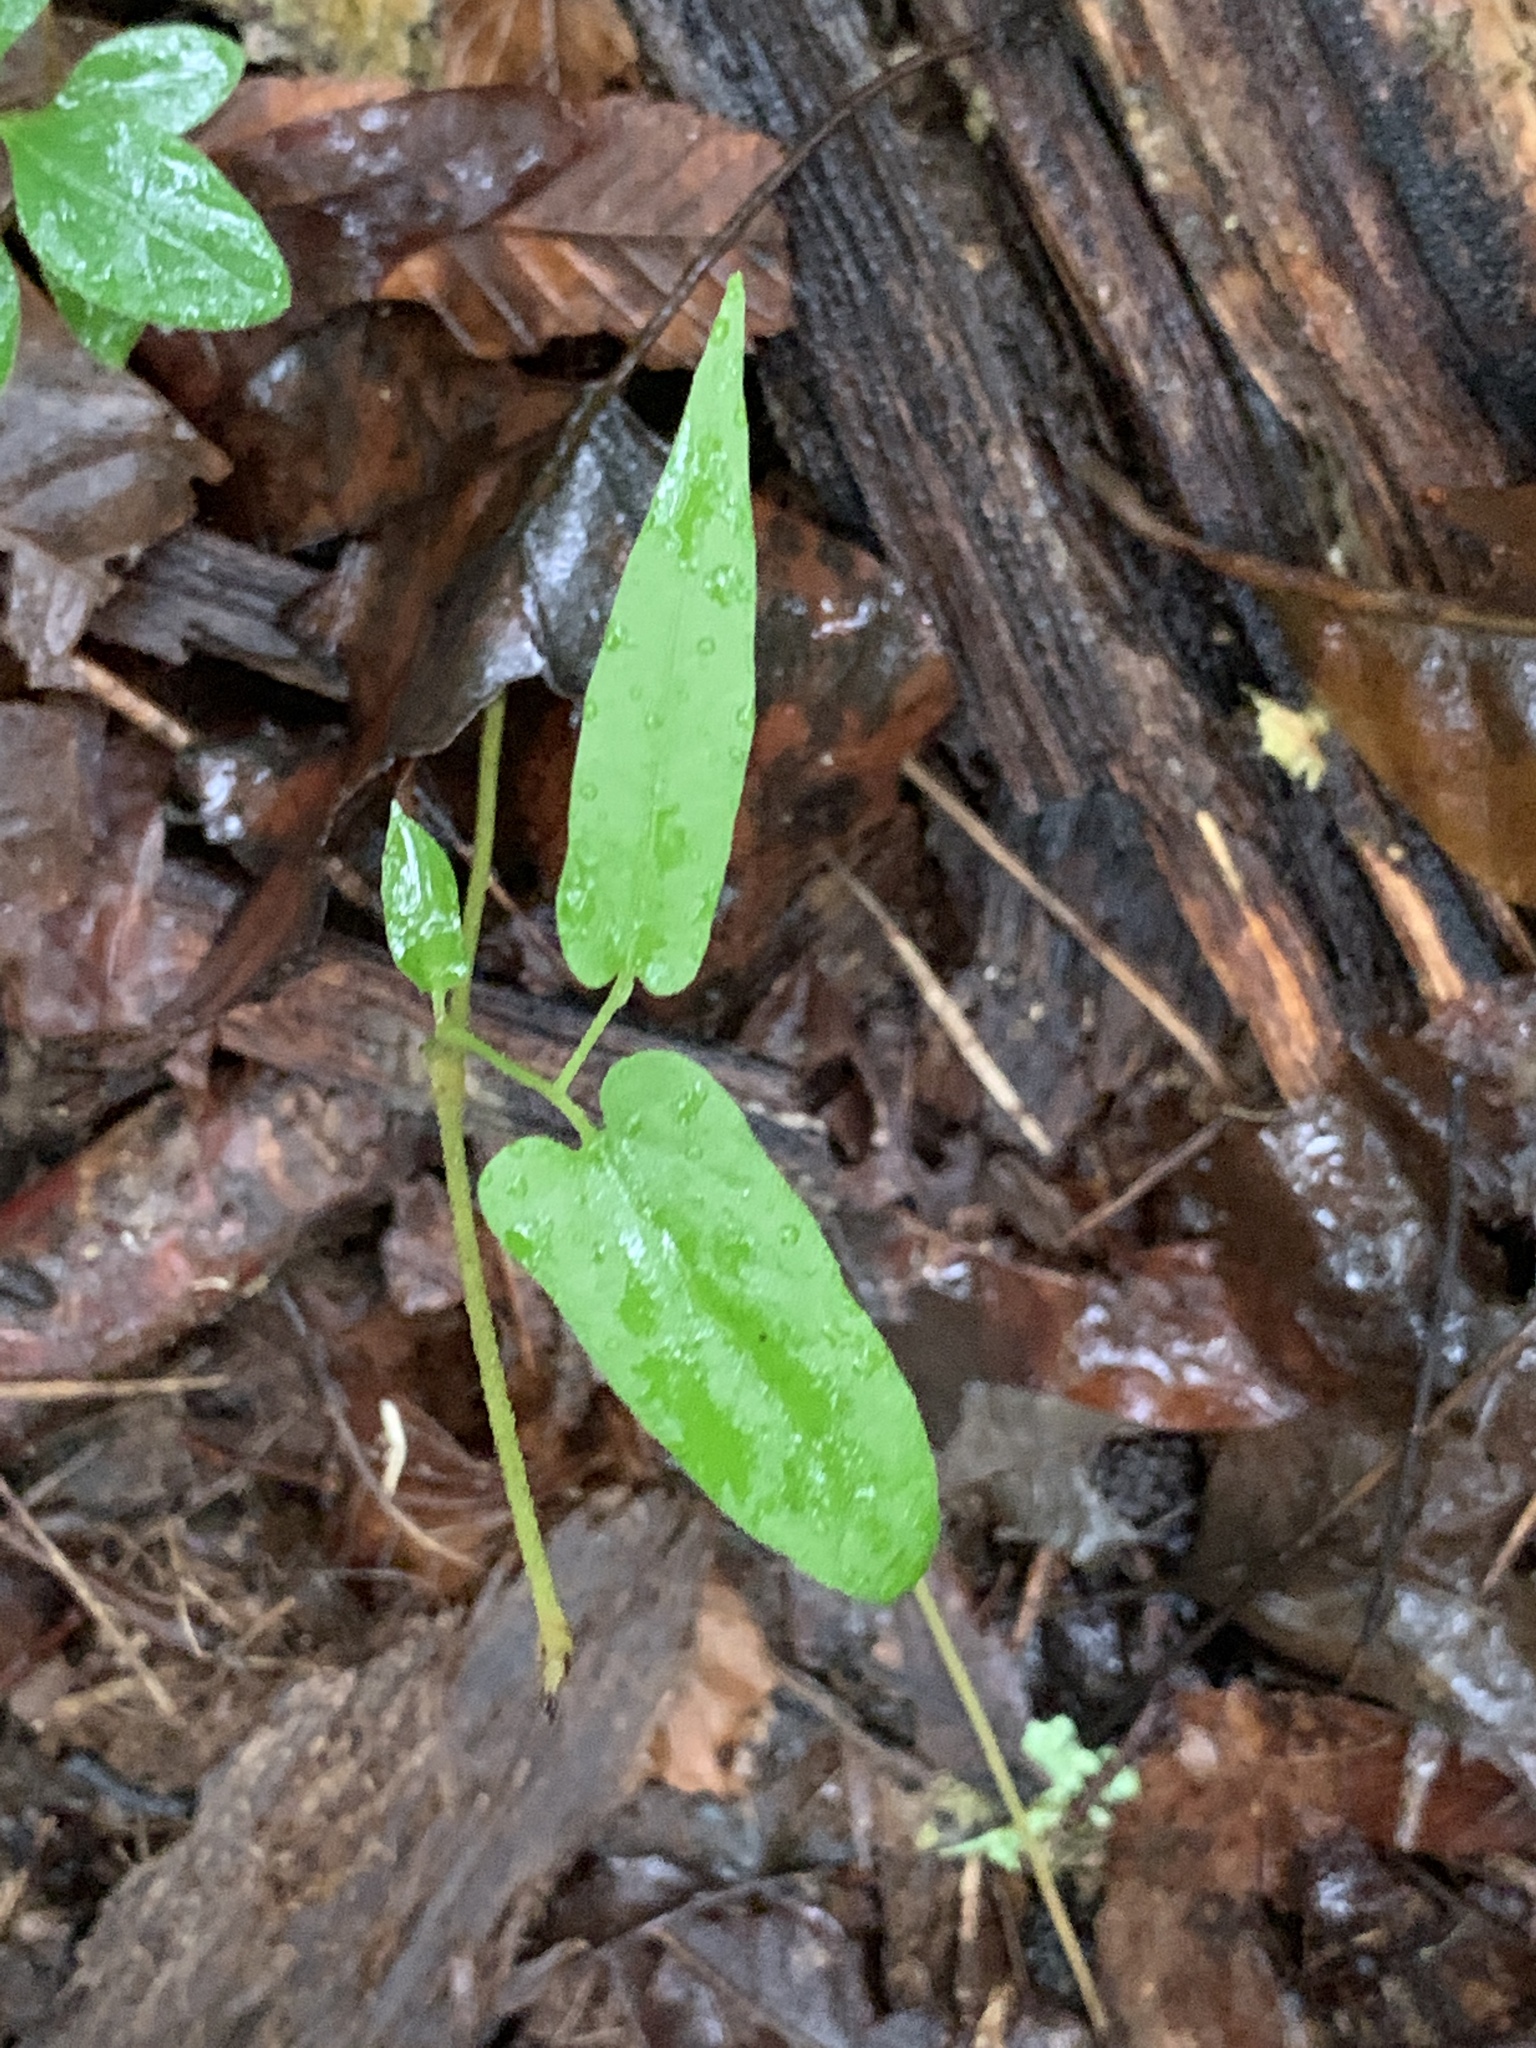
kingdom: Plantae
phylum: Tracheophyta
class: Magnoliopsida
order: Piperales
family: Aristolochiaceae
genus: Endodeca
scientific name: Endodeca serpentaria
